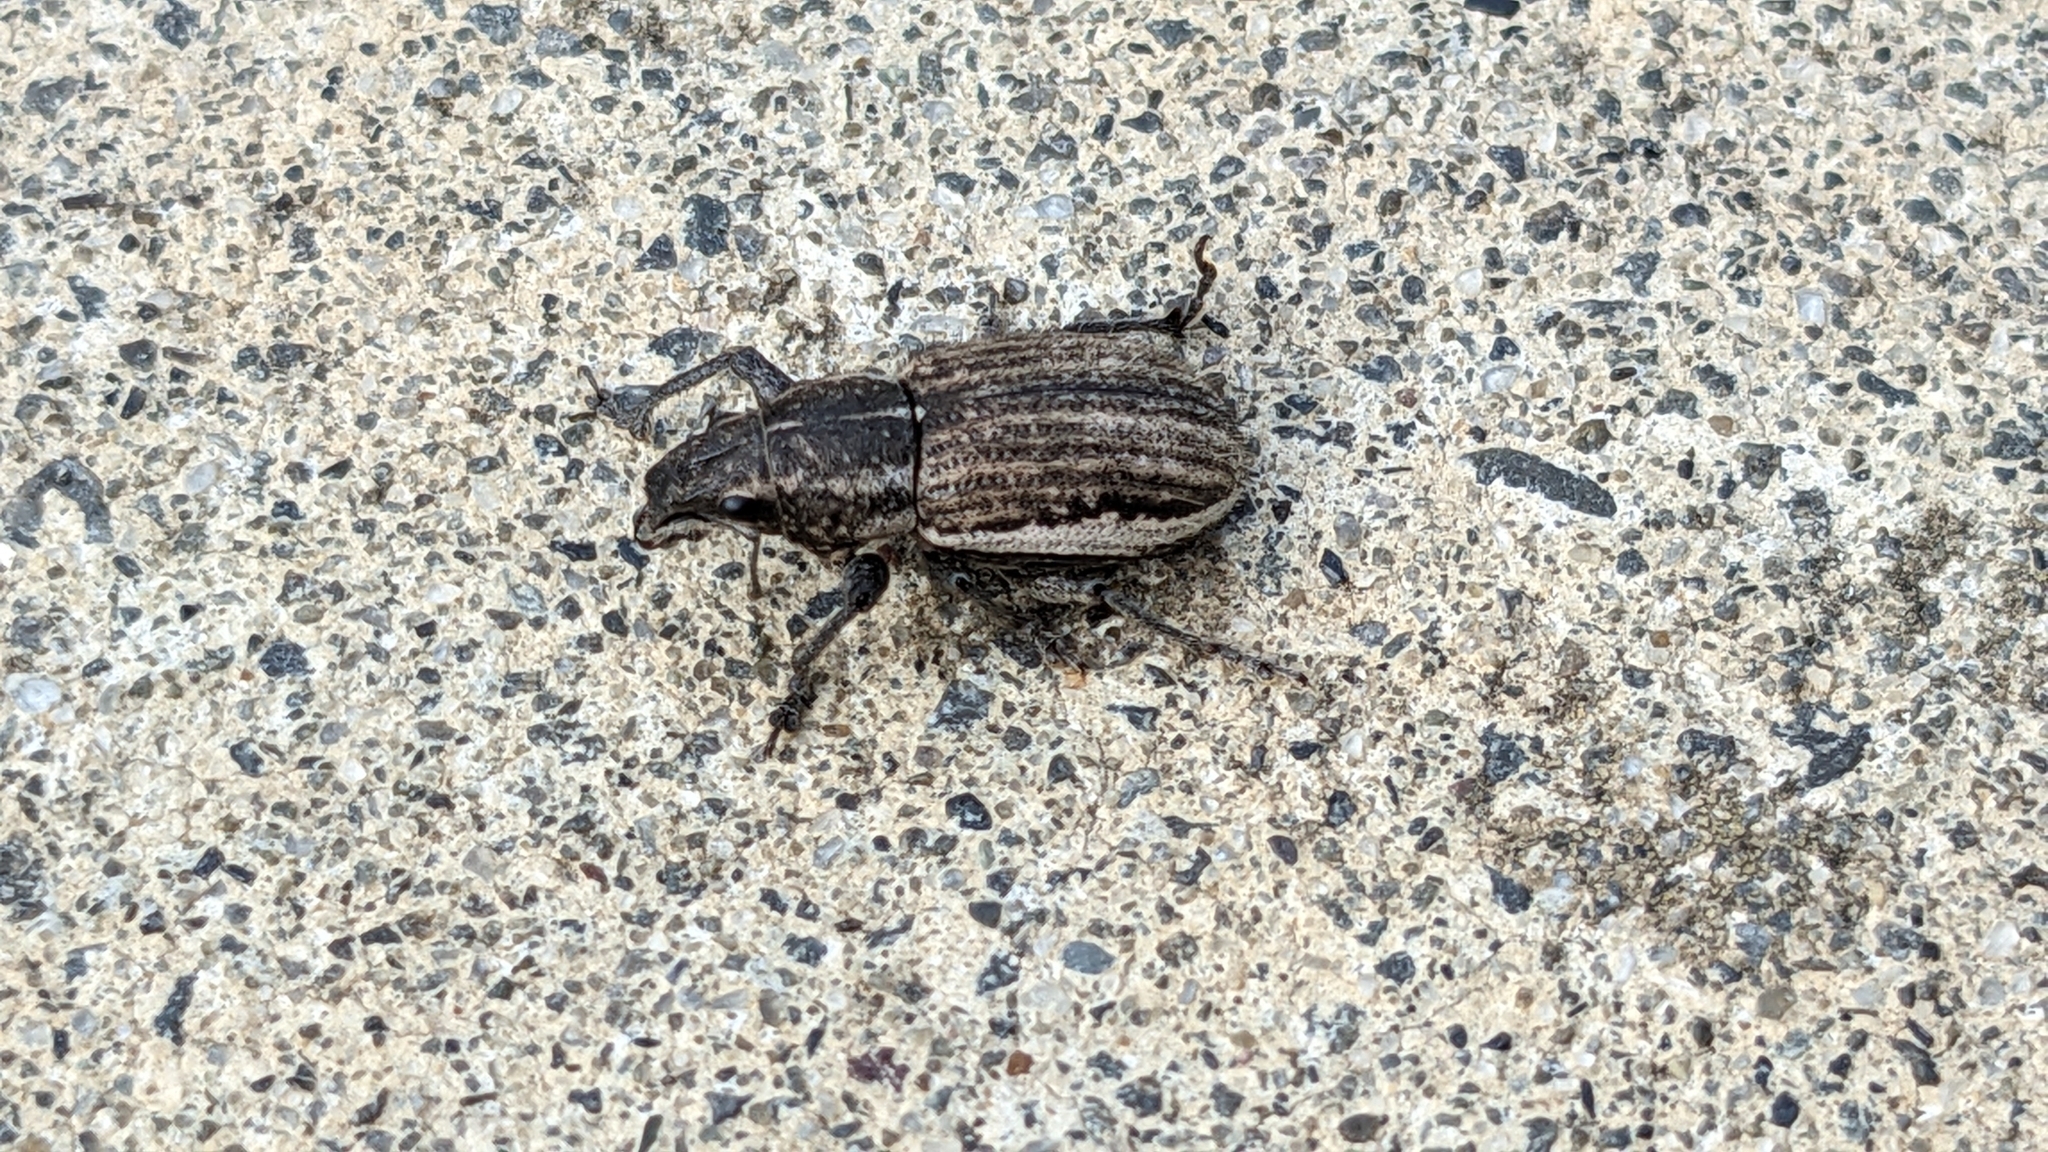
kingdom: Animalia
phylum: Arthropoda
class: Insecta
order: Coleoptera
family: Curculionidae
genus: Naupactus
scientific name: Naupactus leucoloma
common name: Whitefringed beetle
